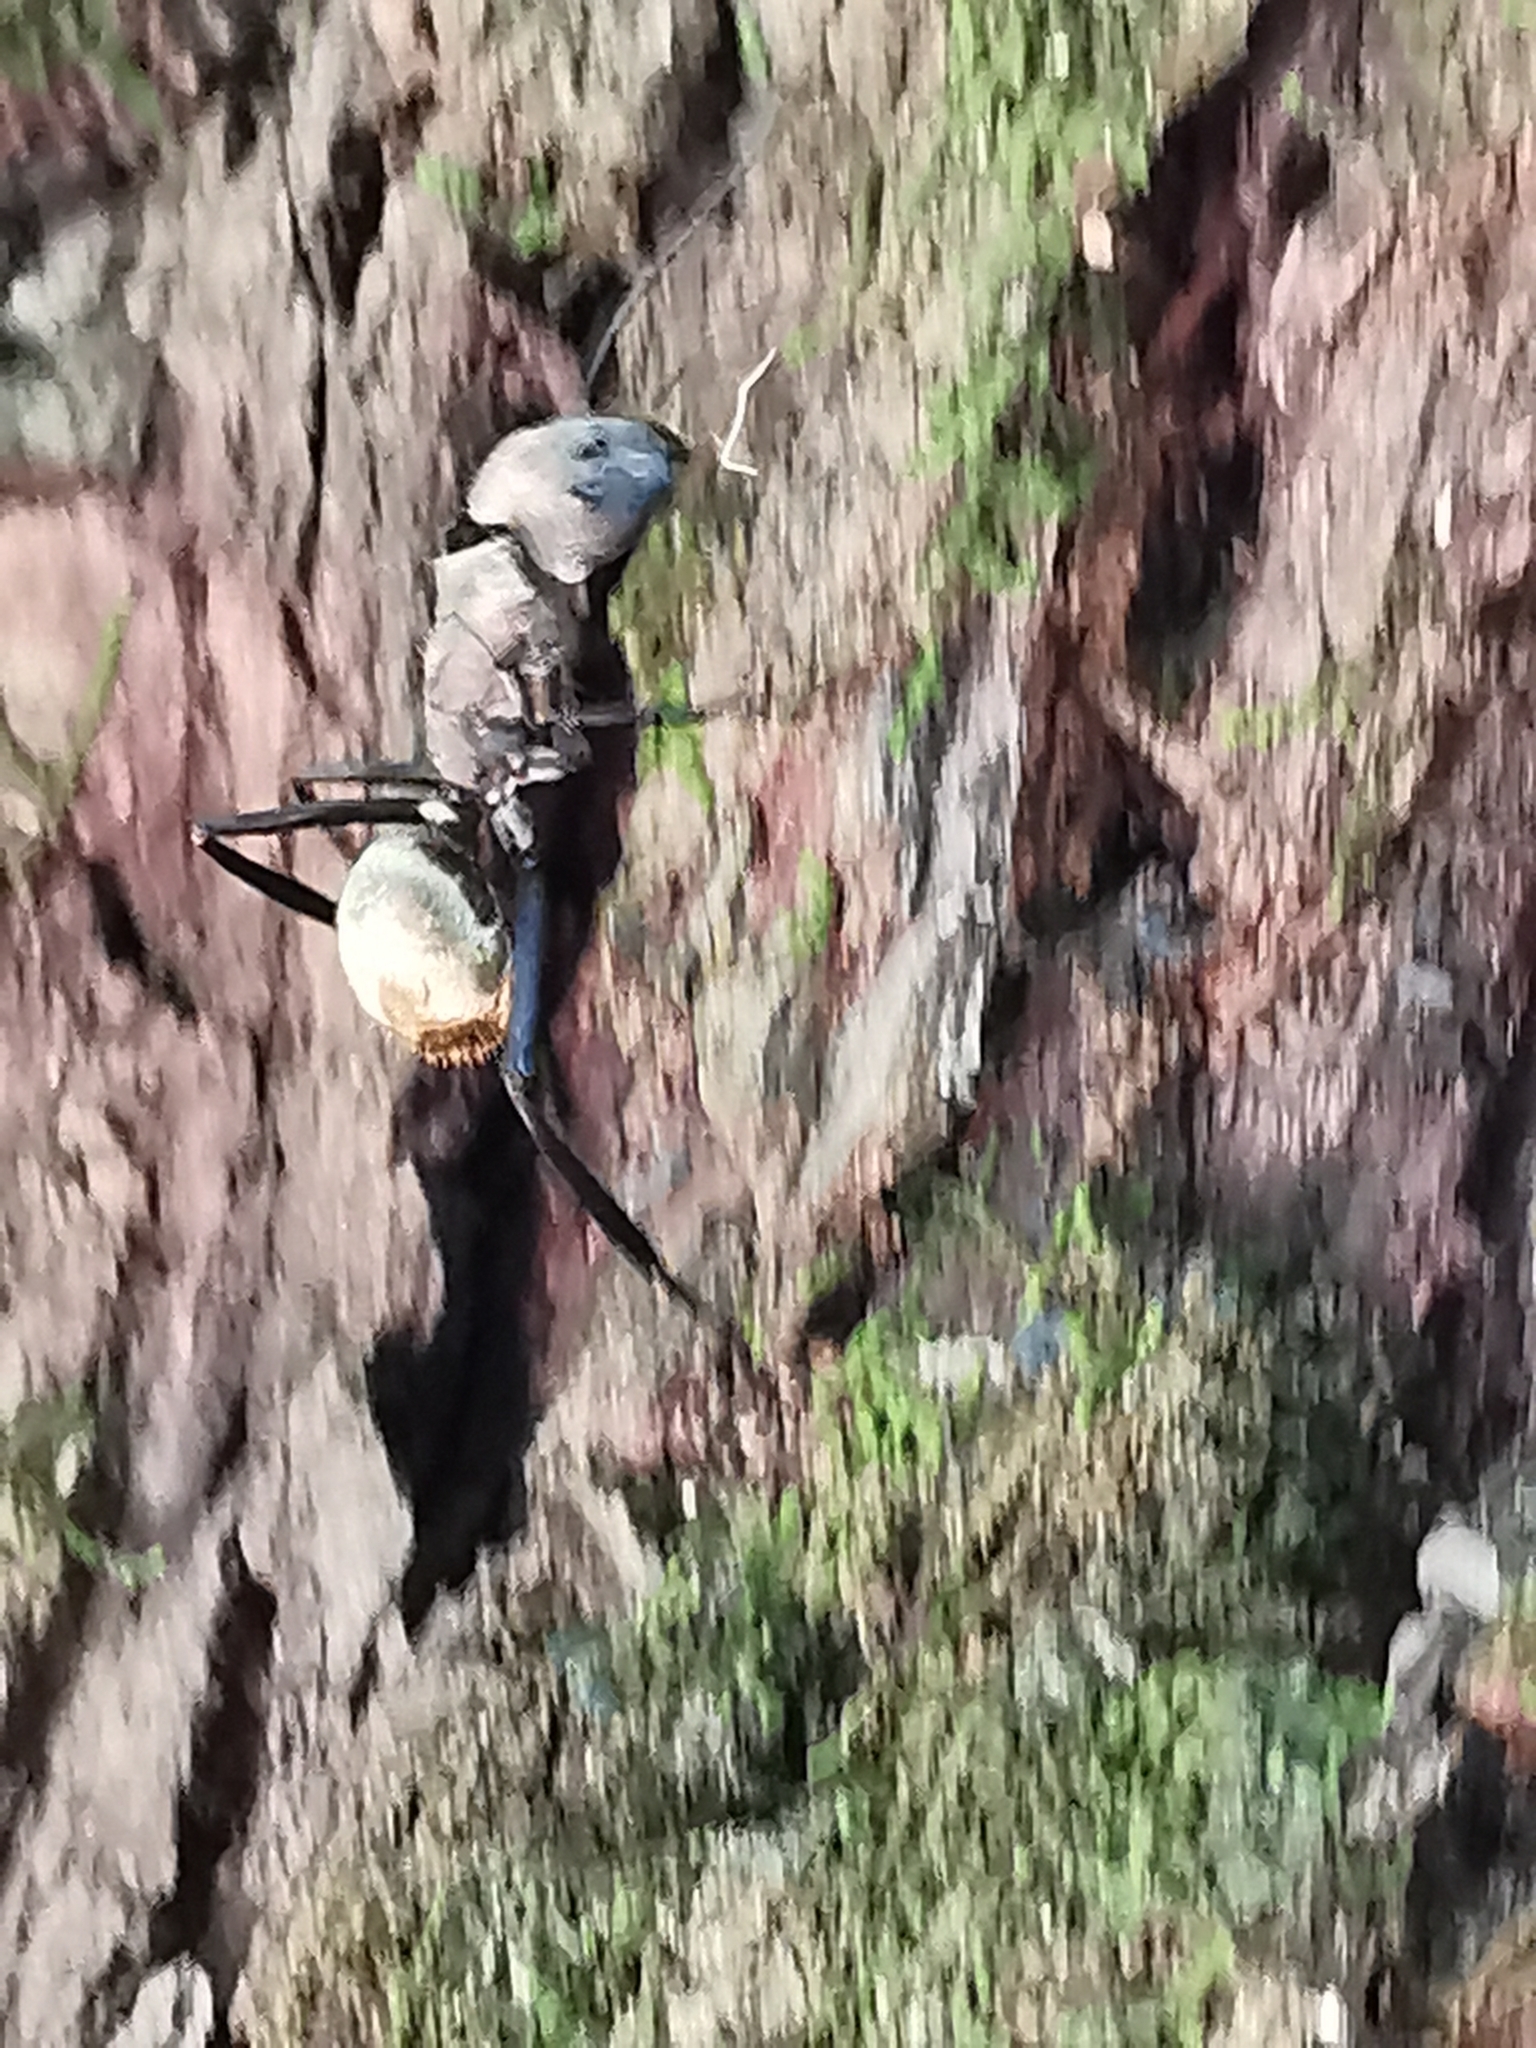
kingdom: Animalia
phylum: Arthropoda
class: Insecta
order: Hymenoptera
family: Formicidae
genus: Camponotus
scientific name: Camponotus sericeiventris
